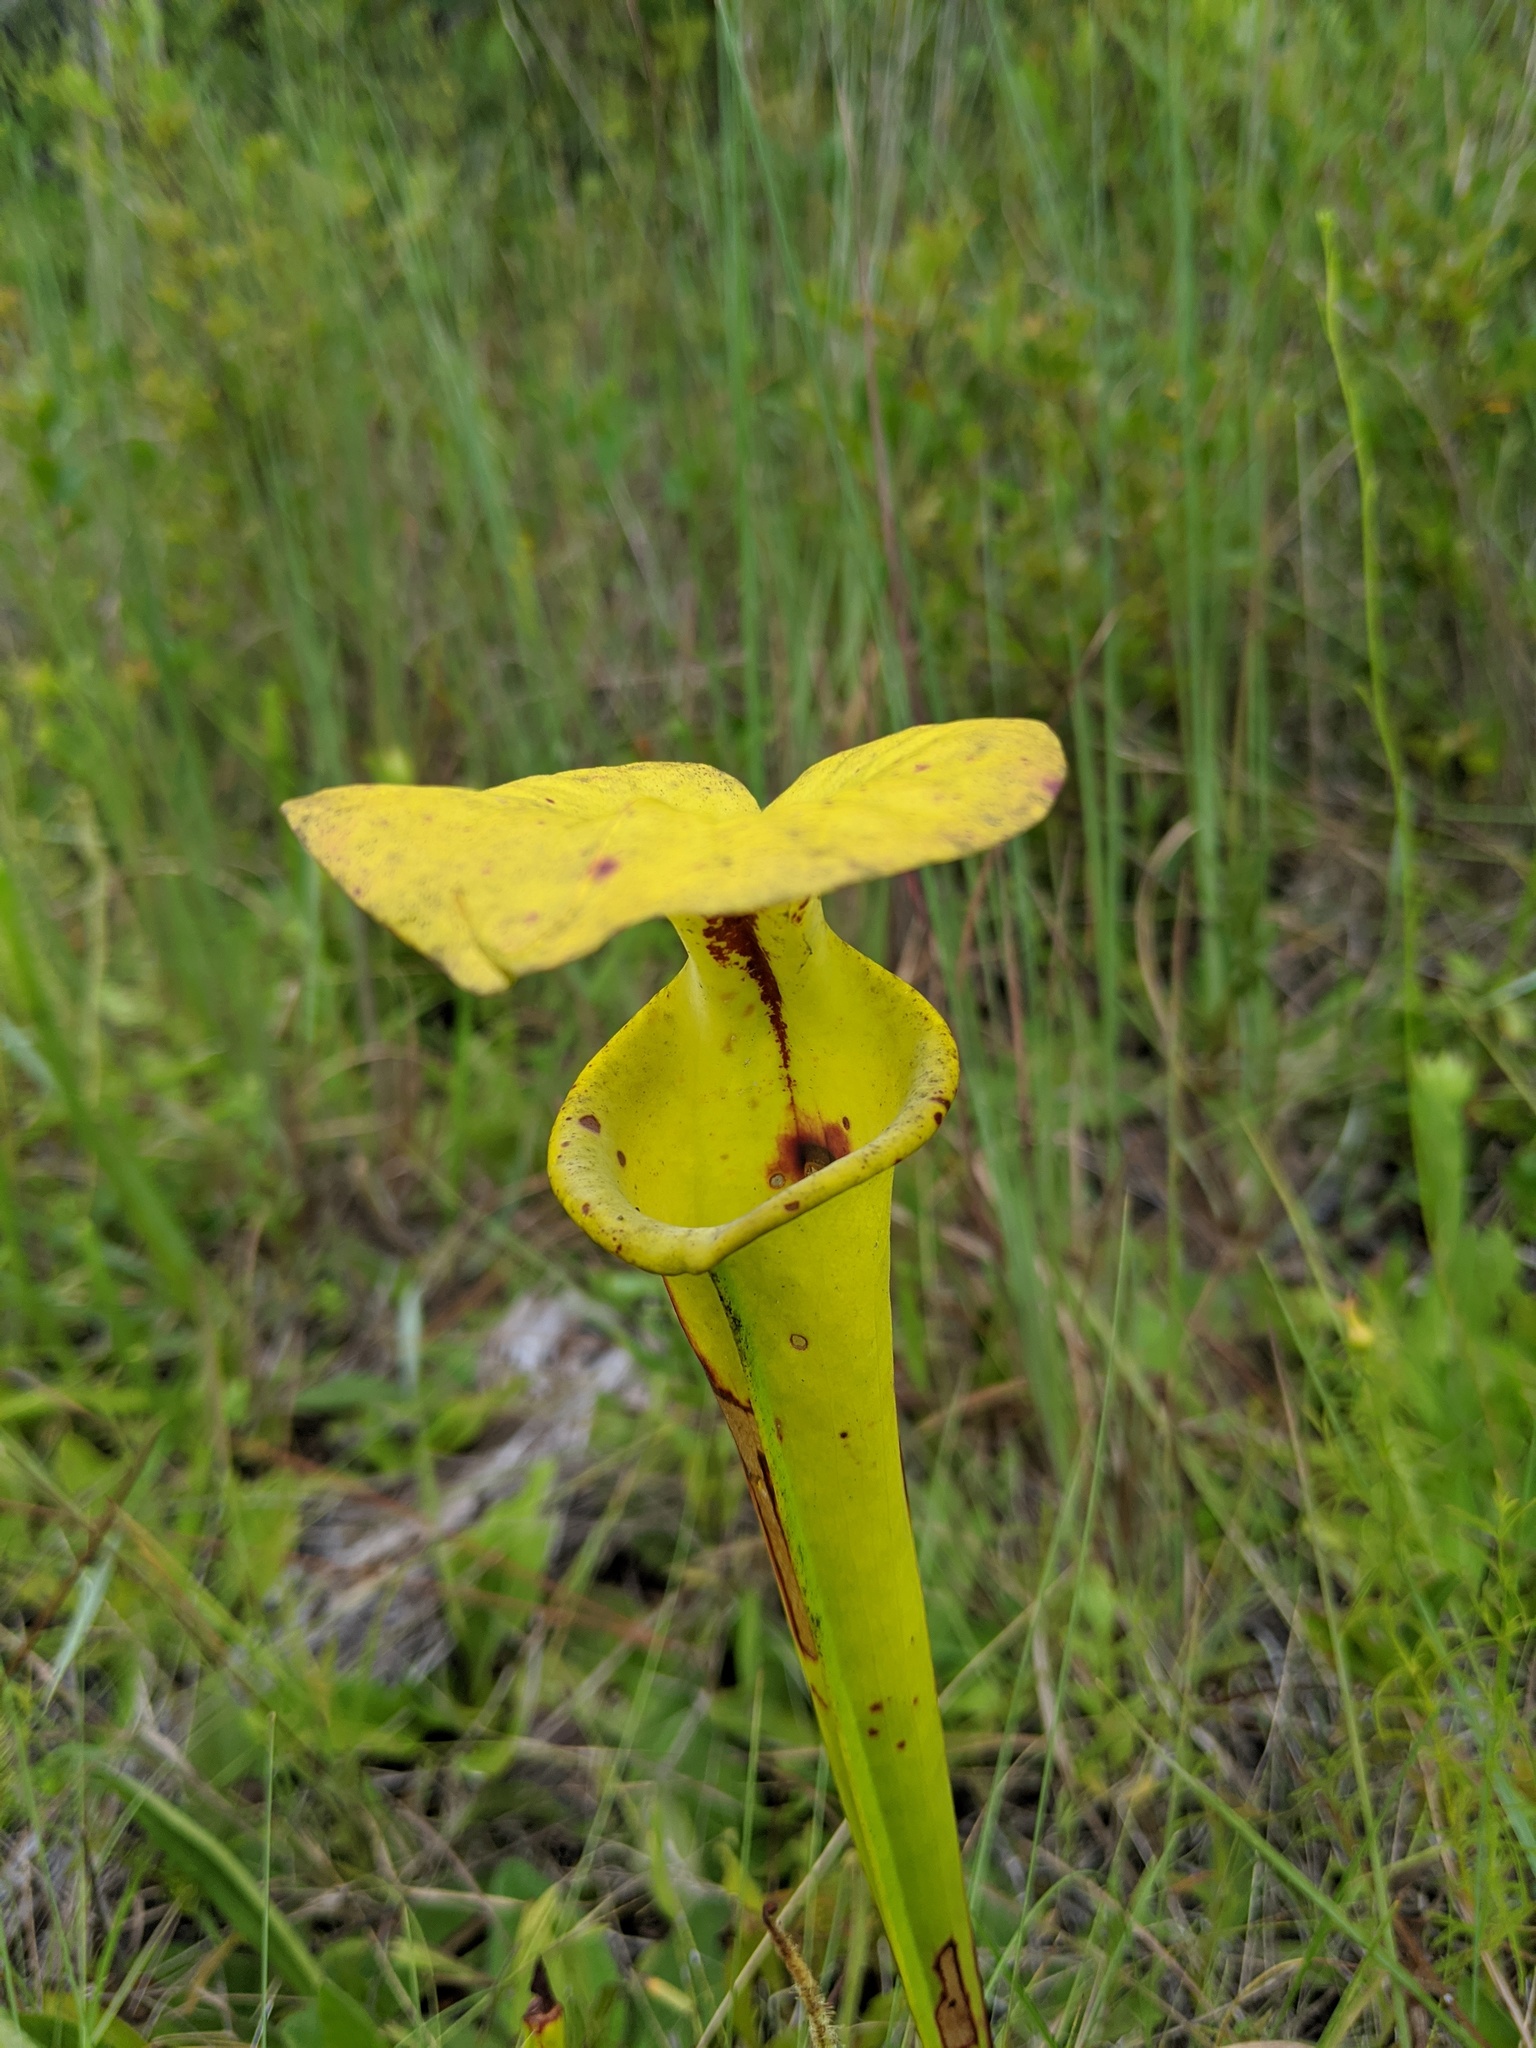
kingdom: Plantae
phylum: Tracheophyta
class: Magnoliopsida
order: Ericales
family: Sarraceniaceae
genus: Sarracenia
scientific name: Sarracenia flava
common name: Trumpets
